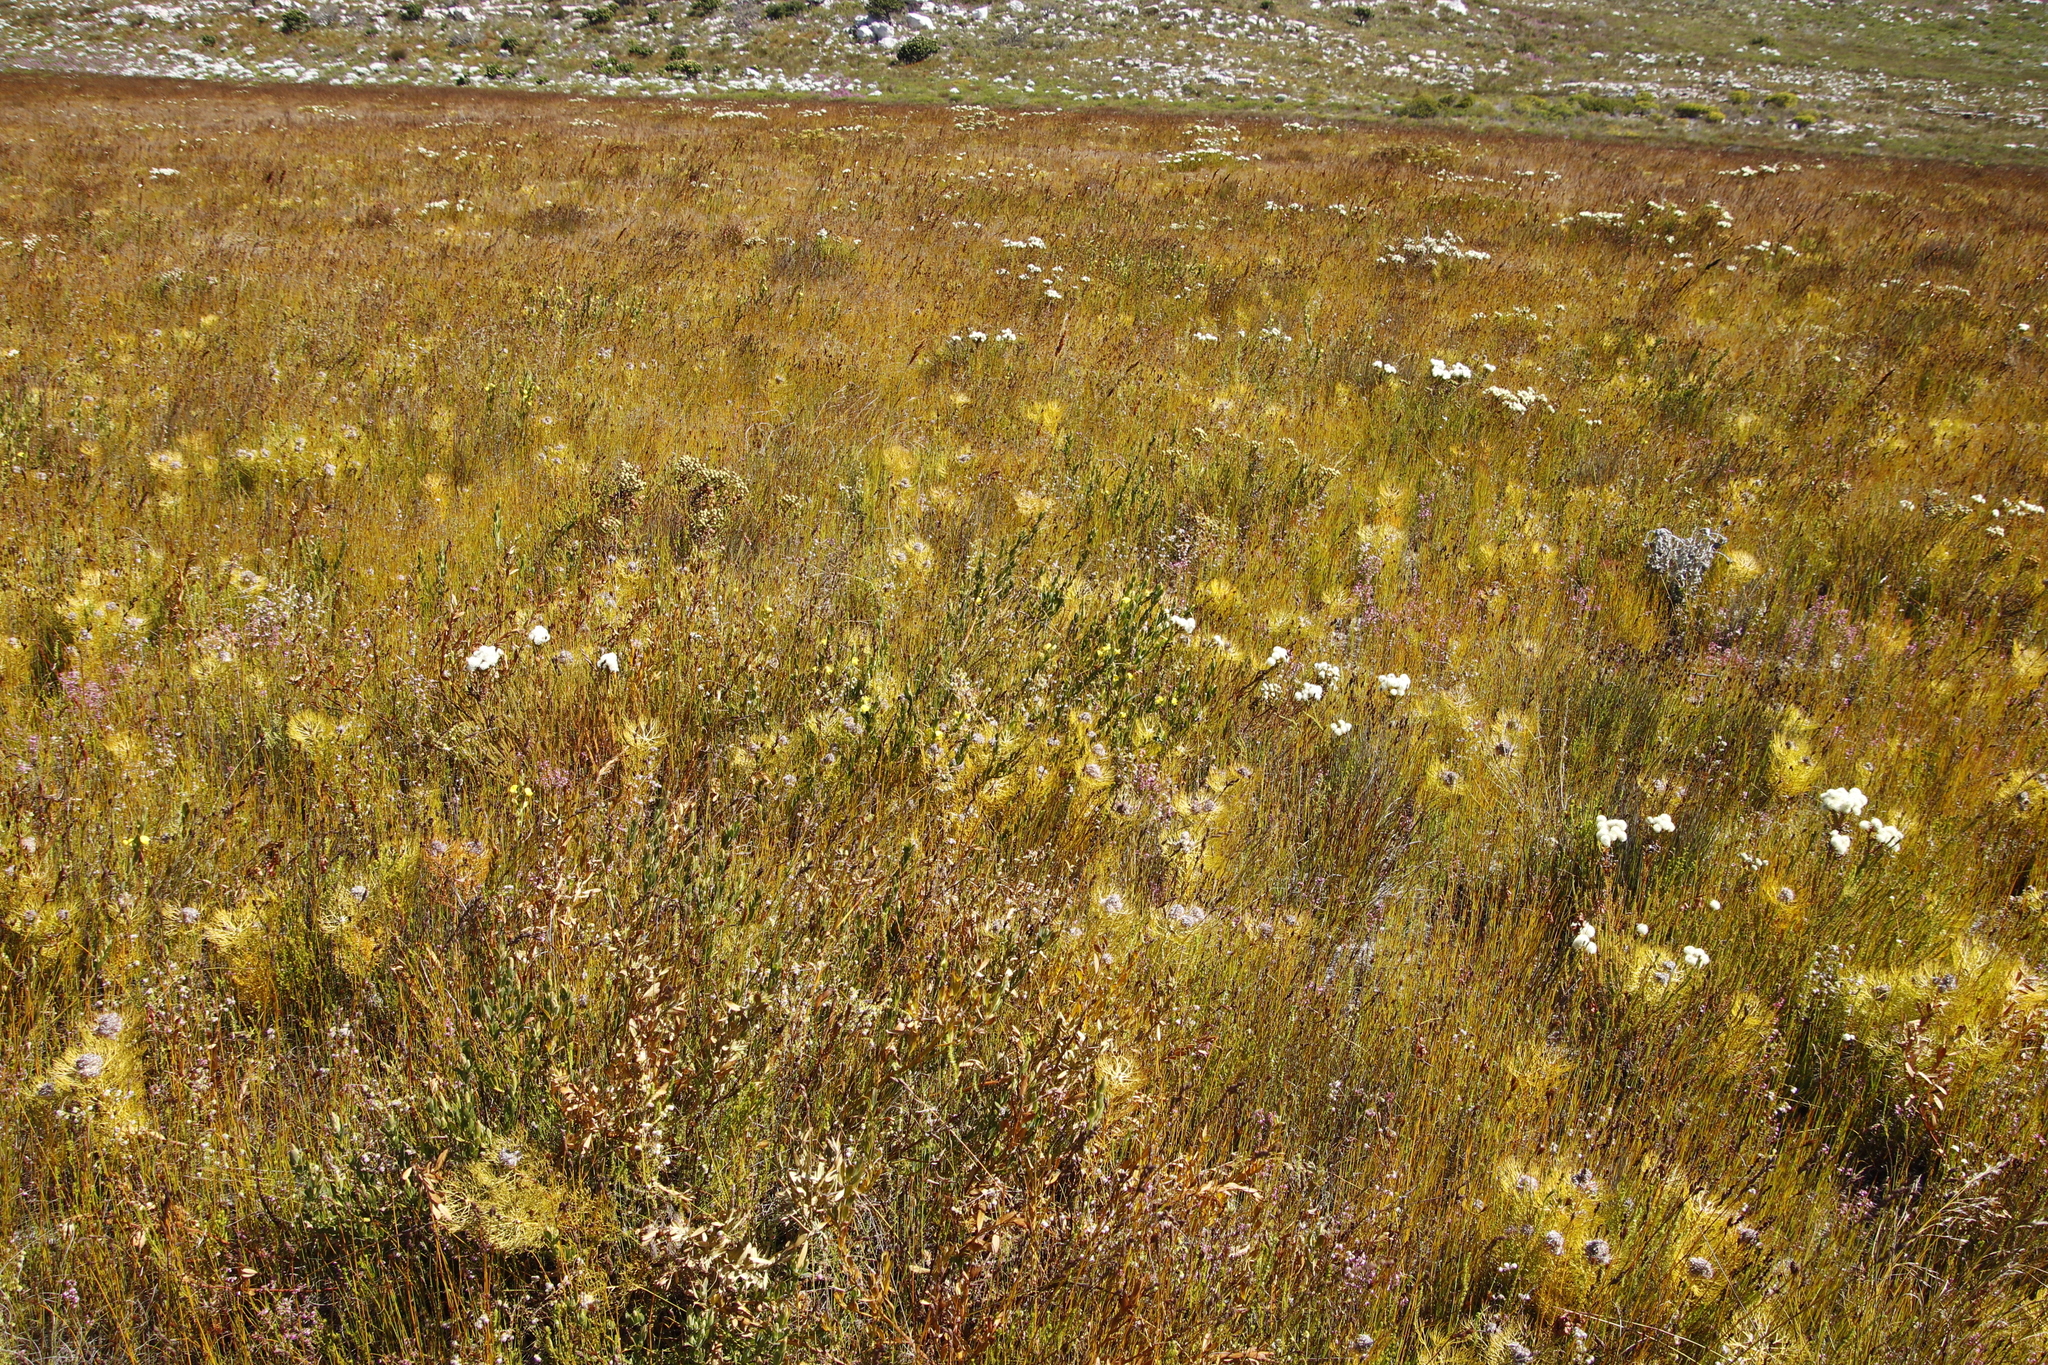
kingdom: Plantae
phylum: Tracheophyta
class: Magnoliopsida
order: Fabales
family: Fabaceae
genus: Rafnia
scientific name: Rafnia crassifolia
